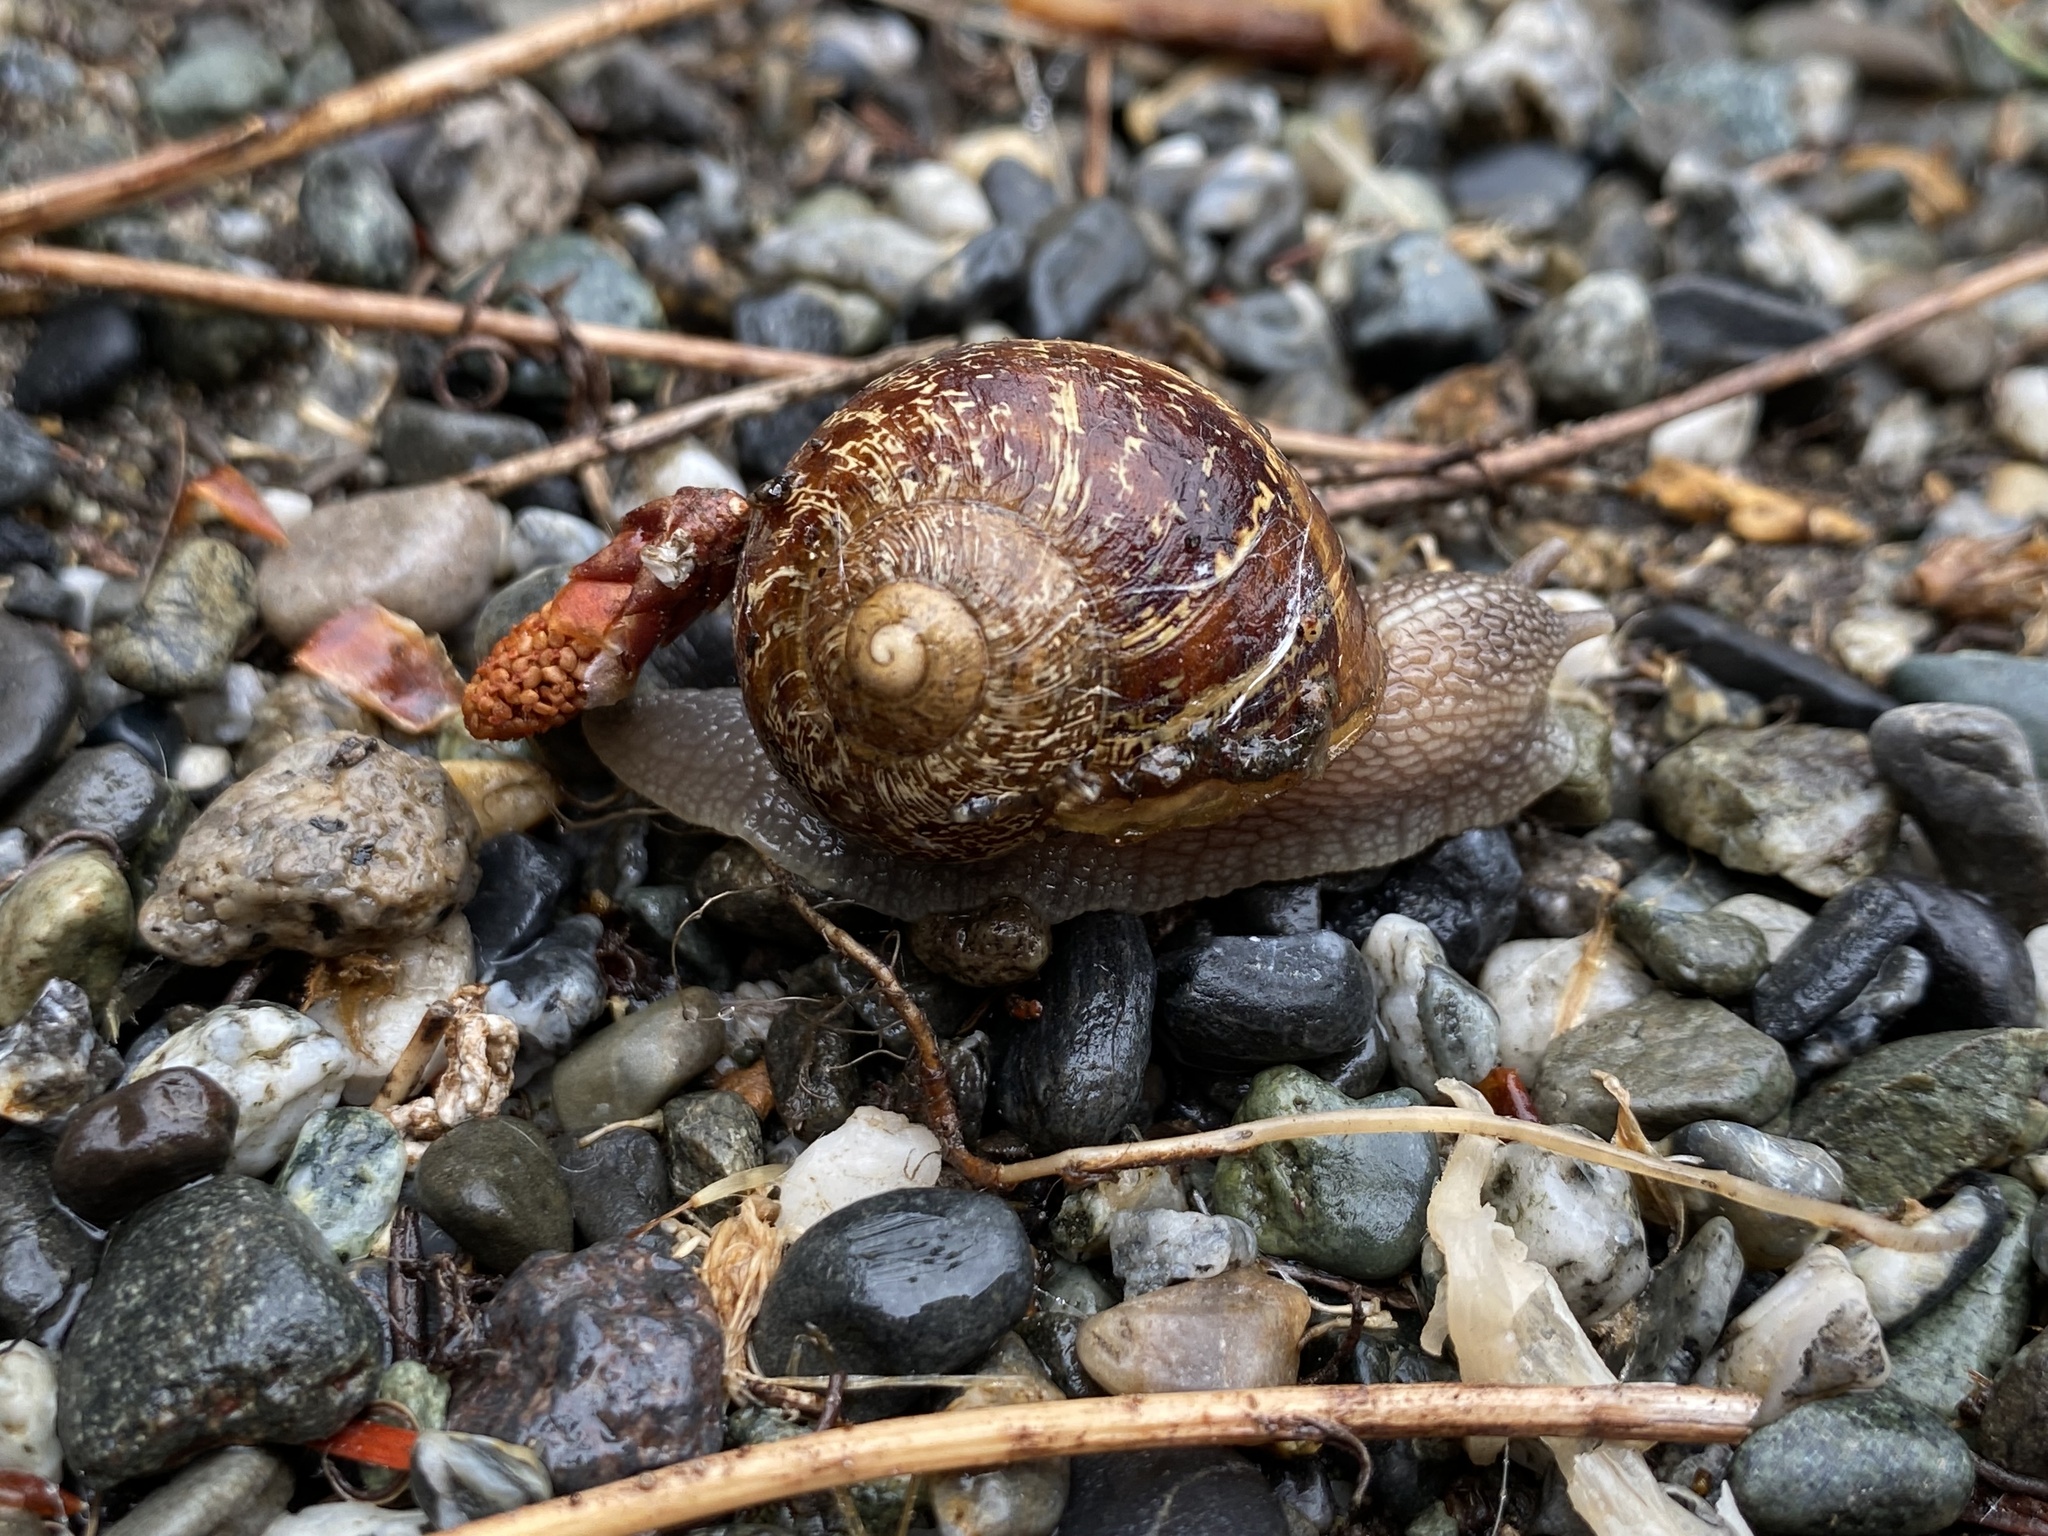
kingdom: Animalia
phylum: Mollusca
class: Gastropoda
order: Stylommatophora
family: Helicidae
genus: Cornu
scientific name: Cornu aspersum
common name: Brown garden snail
